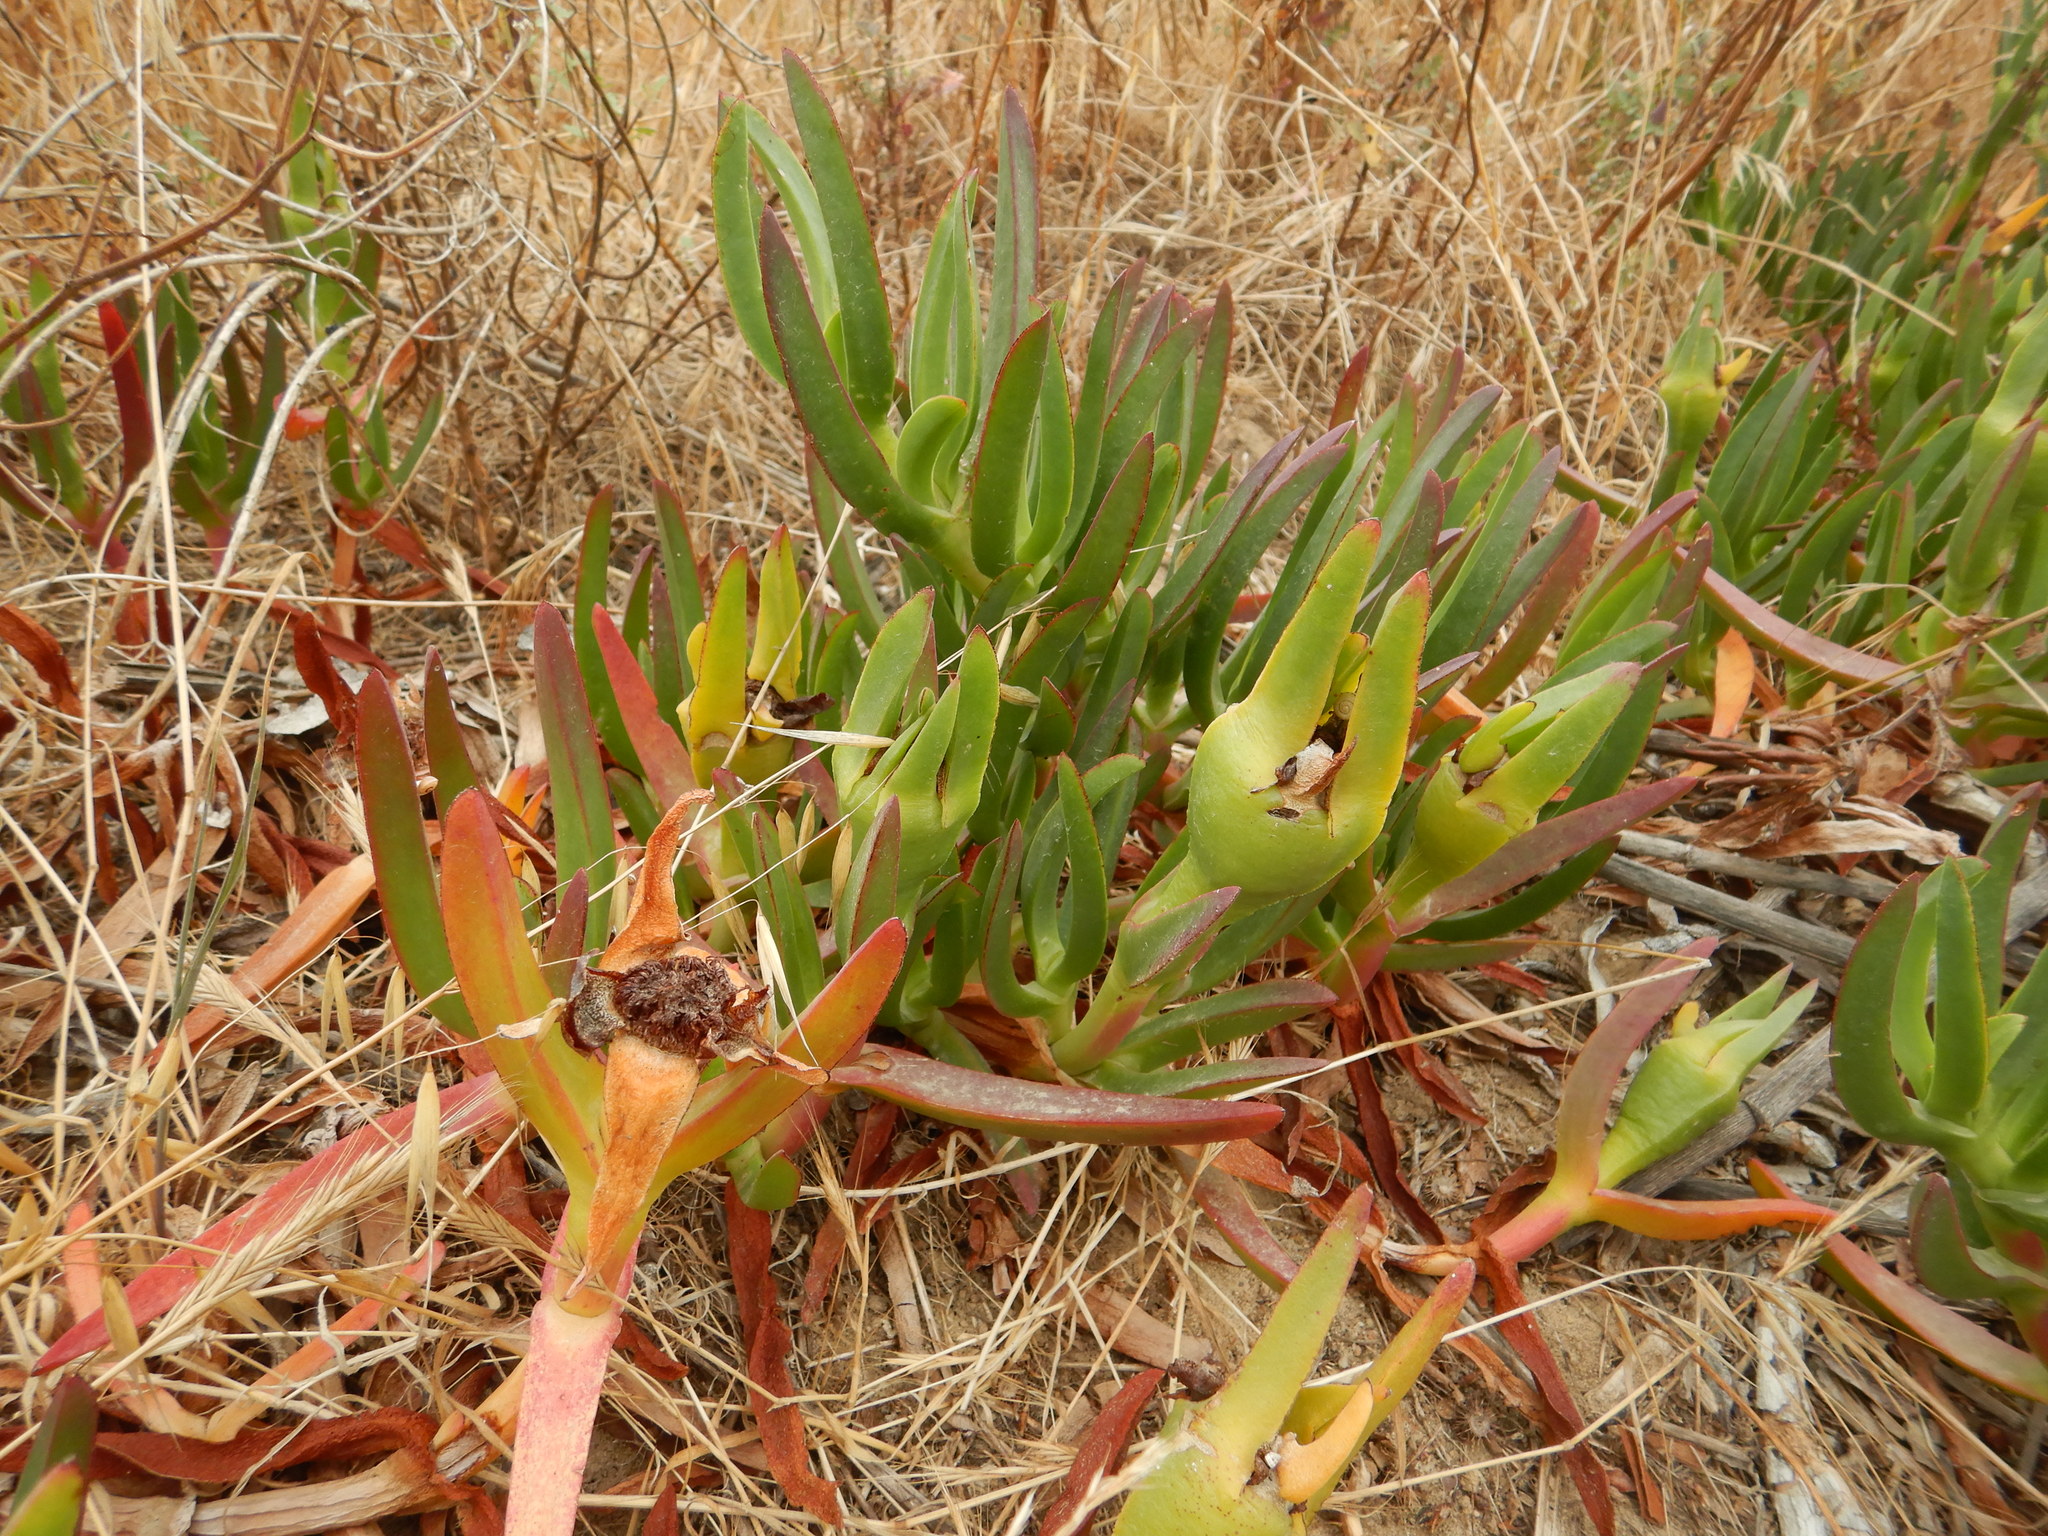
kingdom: Plantae
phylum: Tracheophyta
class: Magnoliopsida
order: Caryophyllales
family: Aizoaceae
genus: Carpobrotus
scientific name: Carpobrotus edulis
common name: Hottentot-fig
